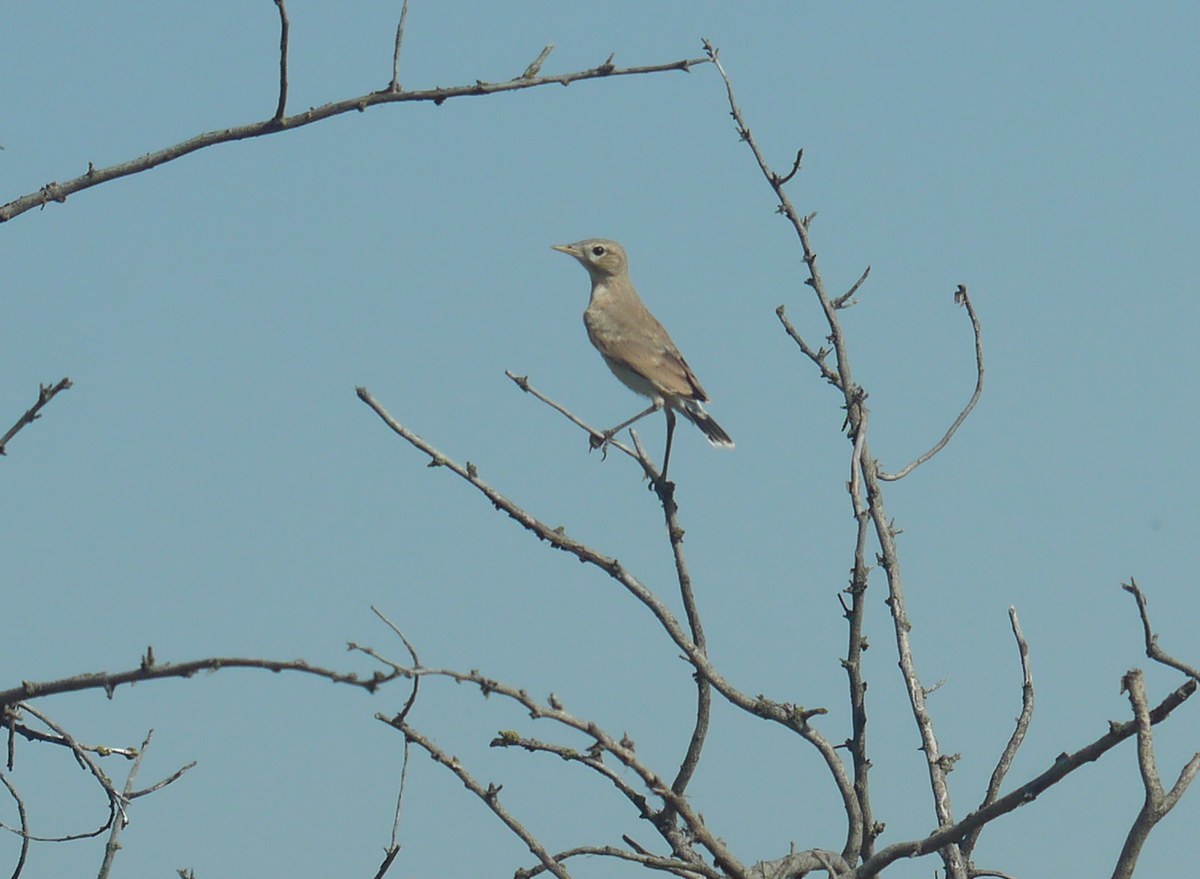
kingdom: Animalia
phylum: Chordata
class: Aves
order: Passeriformes
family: Muscicapidae
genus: Oenanthe
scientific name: Oenanthe isabellina
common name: Isabelline wheatear
